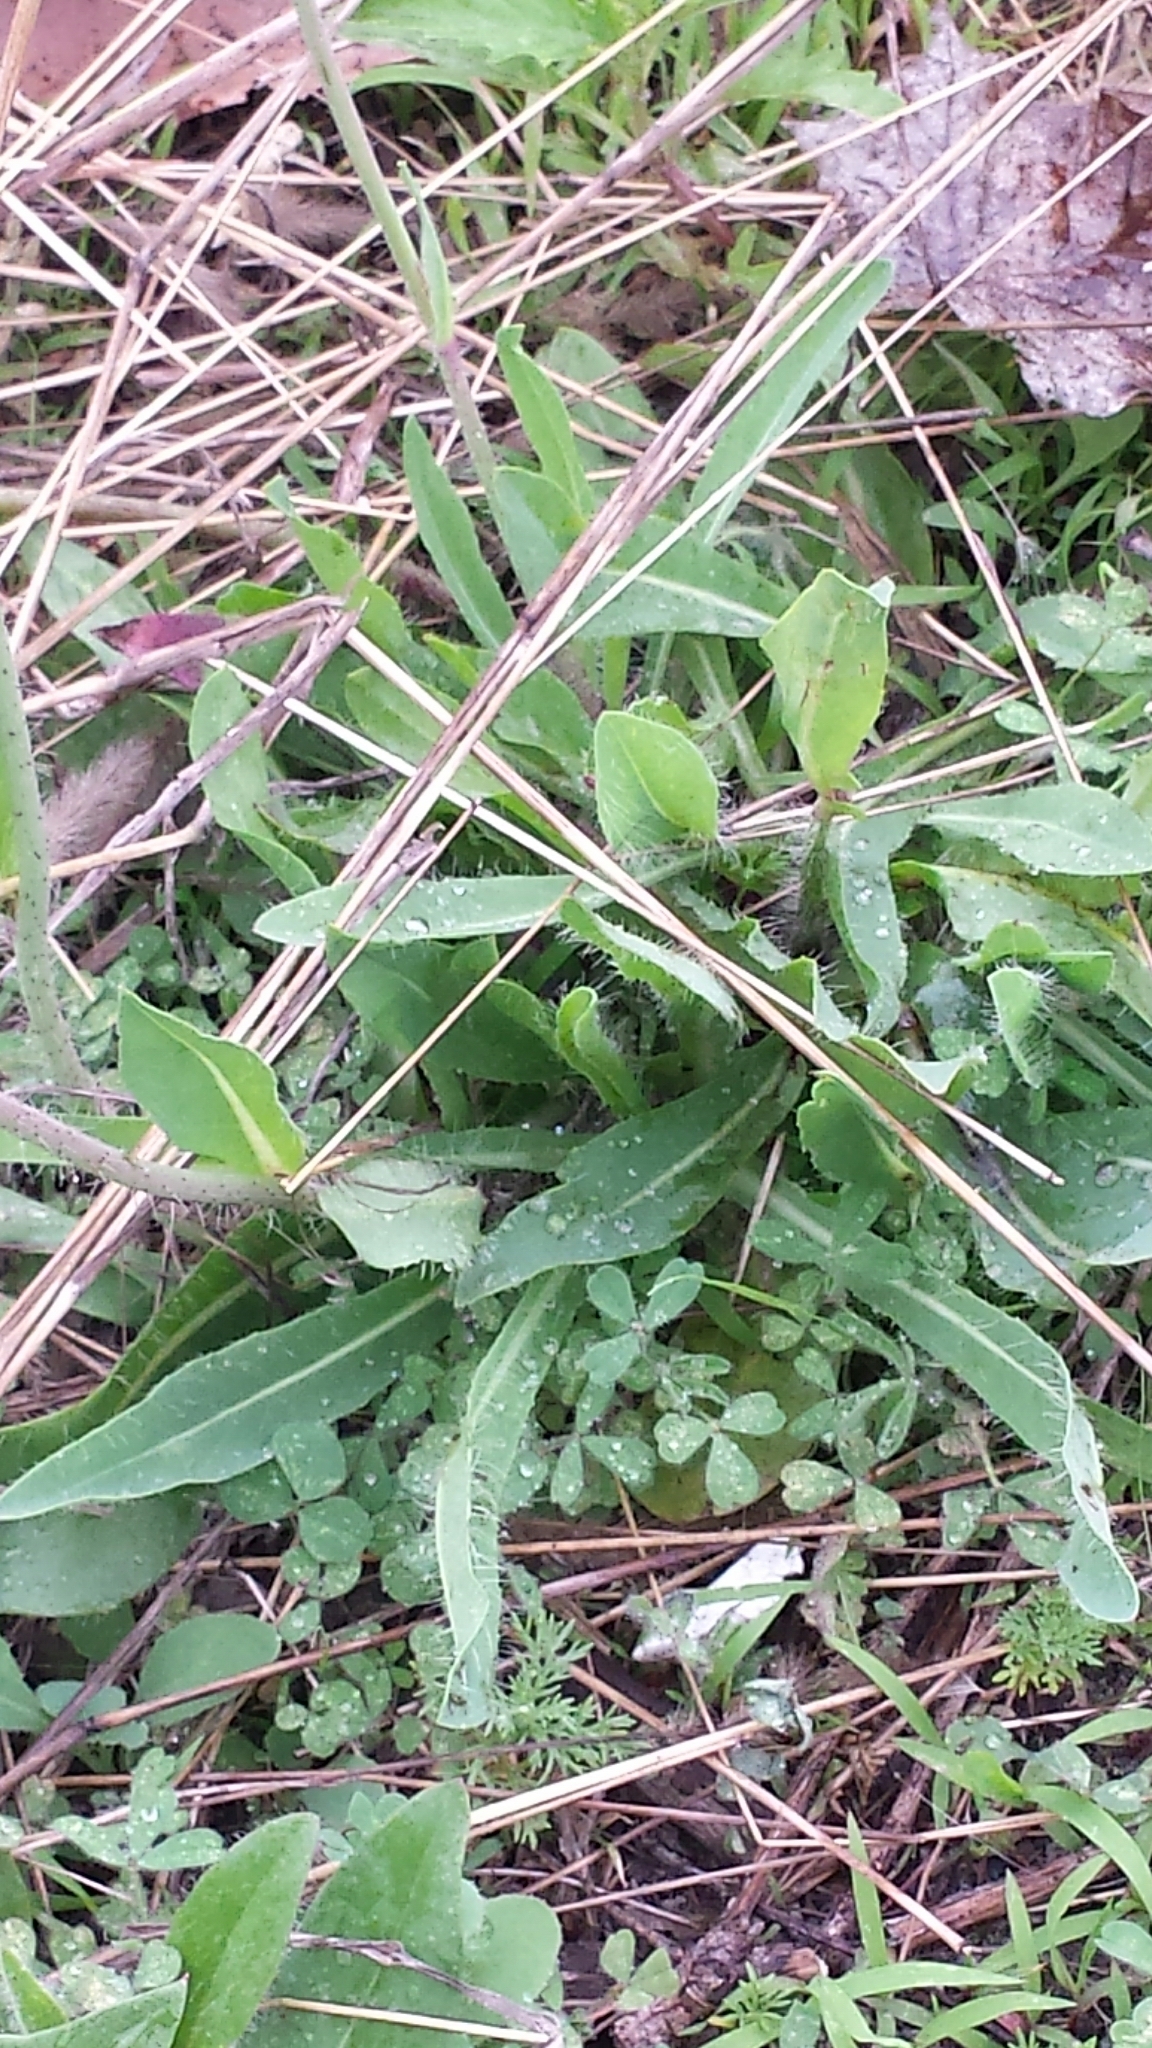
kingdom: Plantae
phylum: Tracheophyta
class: Magnoliopsida
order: Asterales
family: Asteraceae
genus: Pilosella
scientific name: Pilosella caespitosa
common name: Yellow fox-and-cubs
